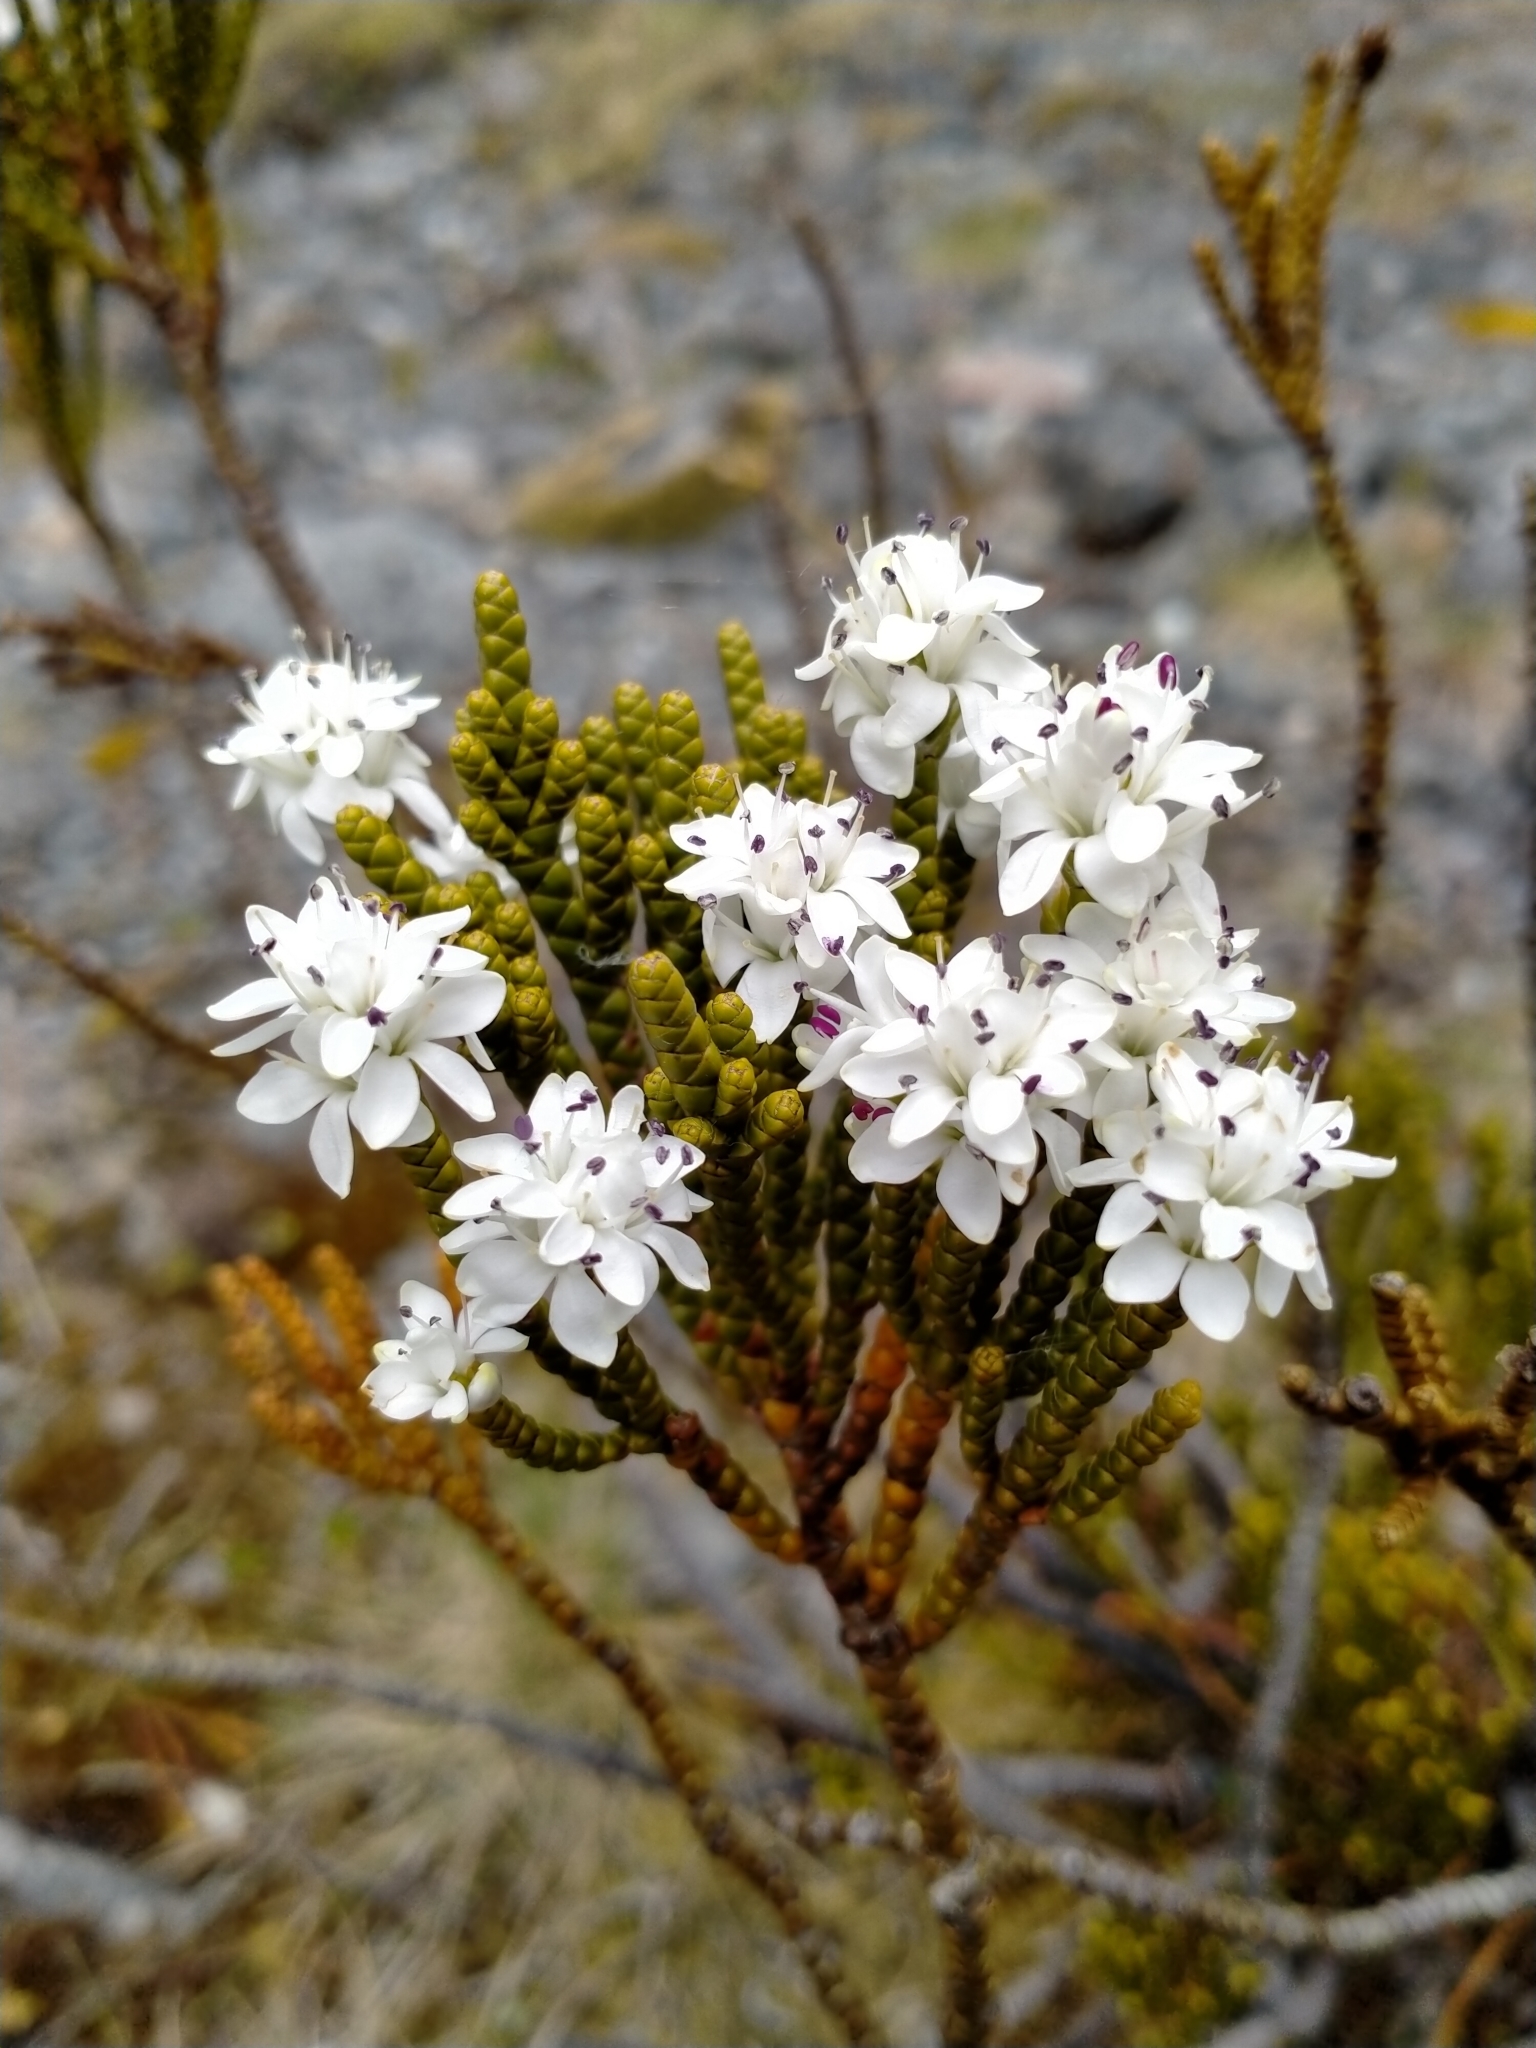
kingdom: Plantae
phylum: Tracheophyta
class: Magnoliopsida
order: Lamiales
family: Plantaginaceae
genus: Veronica
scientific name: Veronica hectorii
